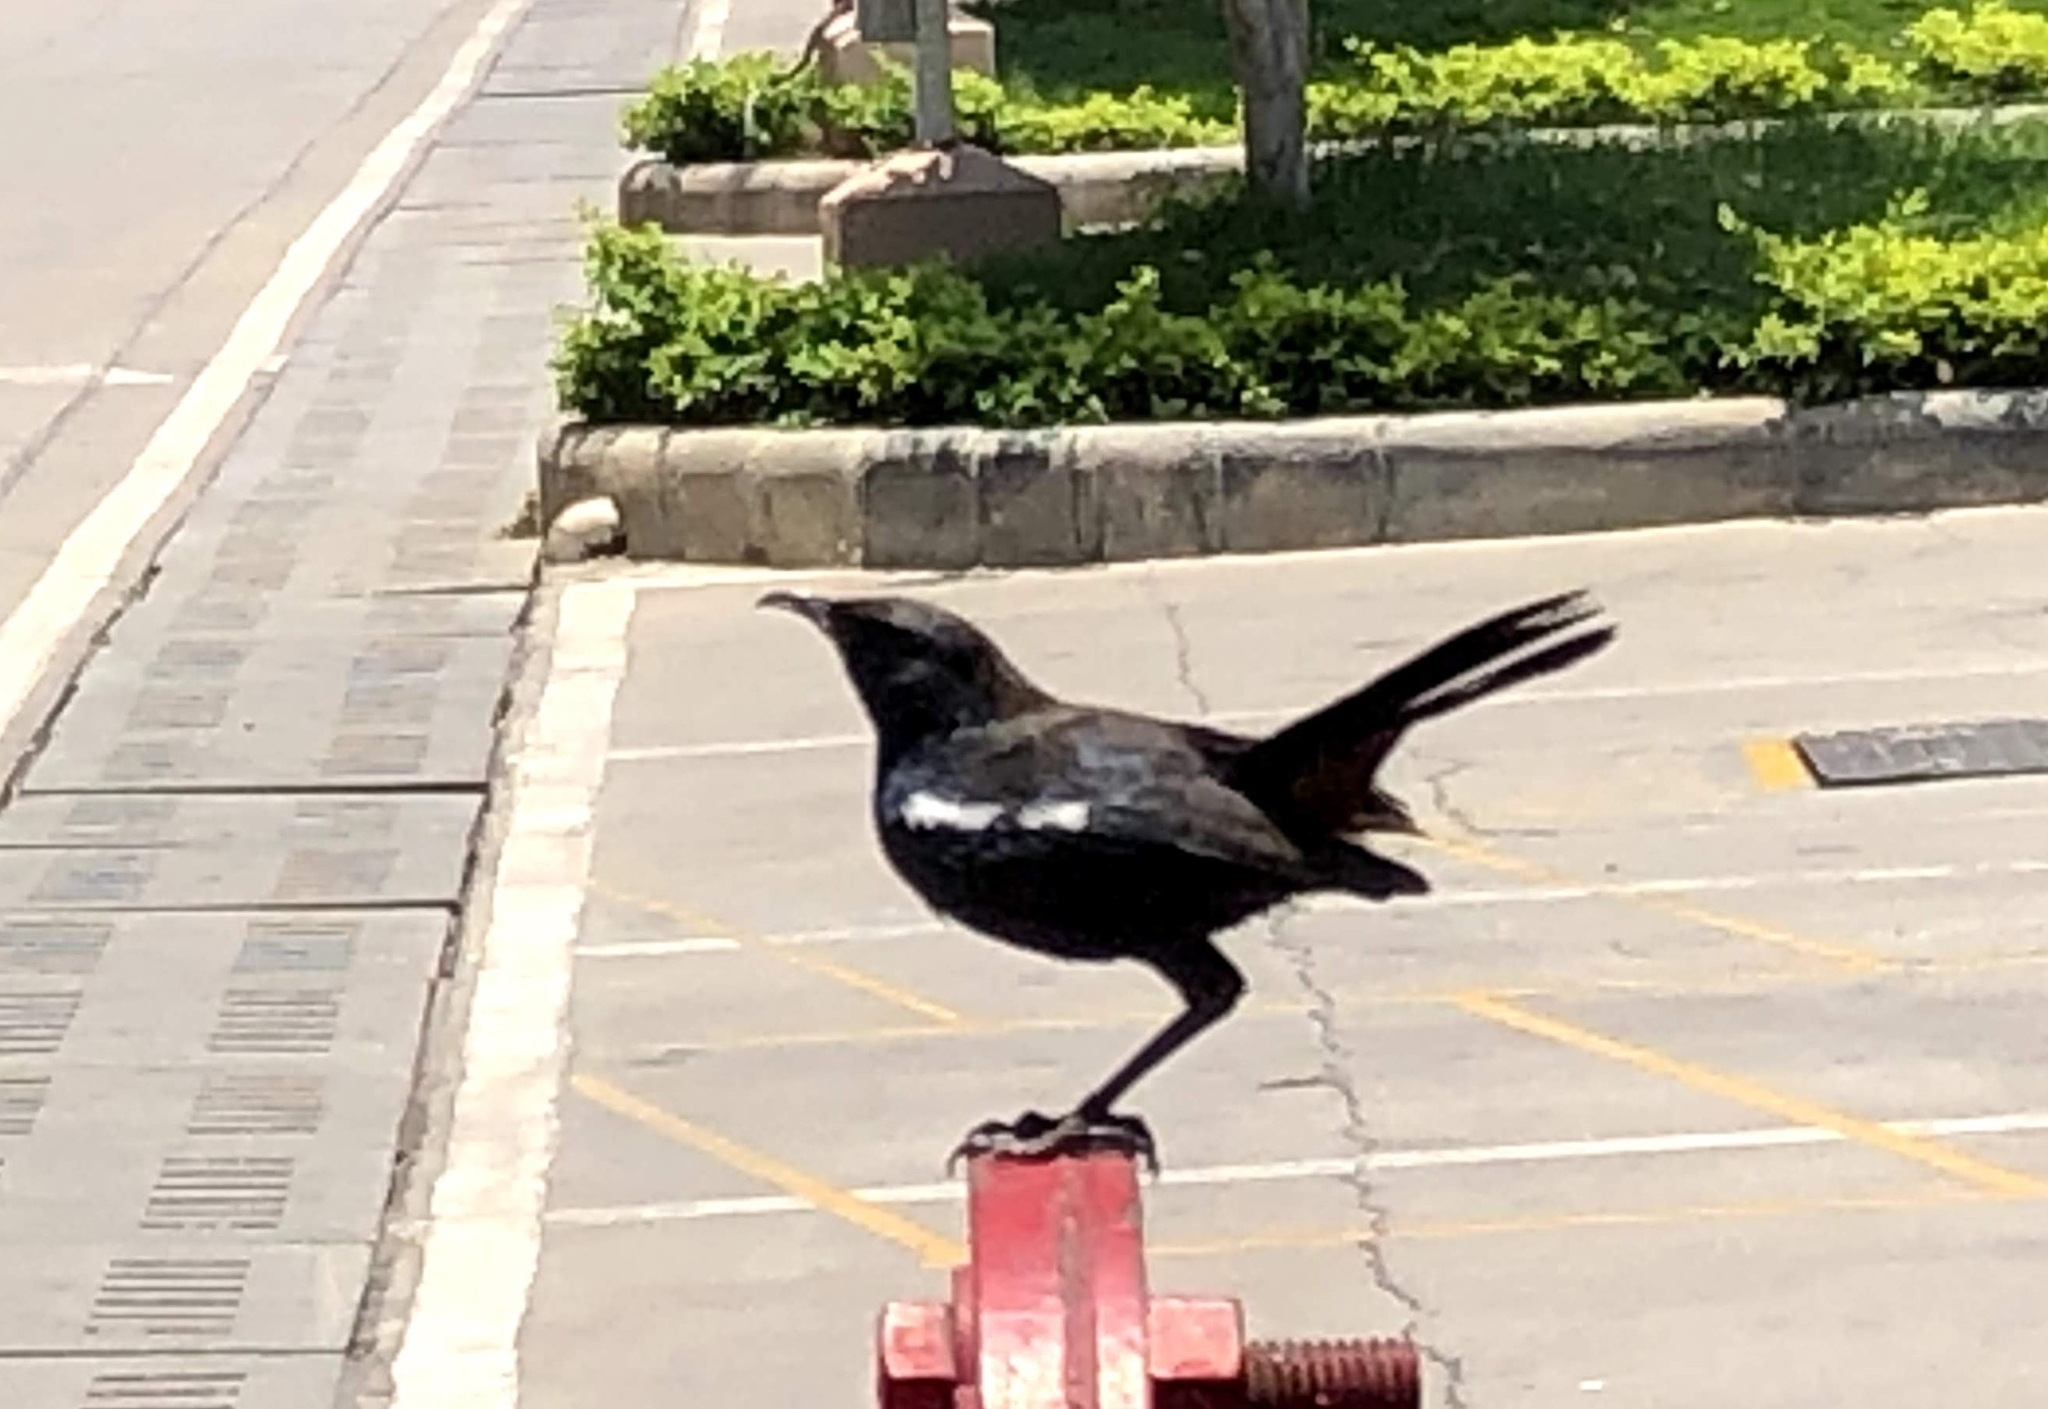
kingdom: Animalia
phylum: Chordata
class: Aves
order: Passeriformes
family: Muscicapidae
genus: Saxicoloides
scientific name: Saxicoloides fulicatus
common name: Indian robin
